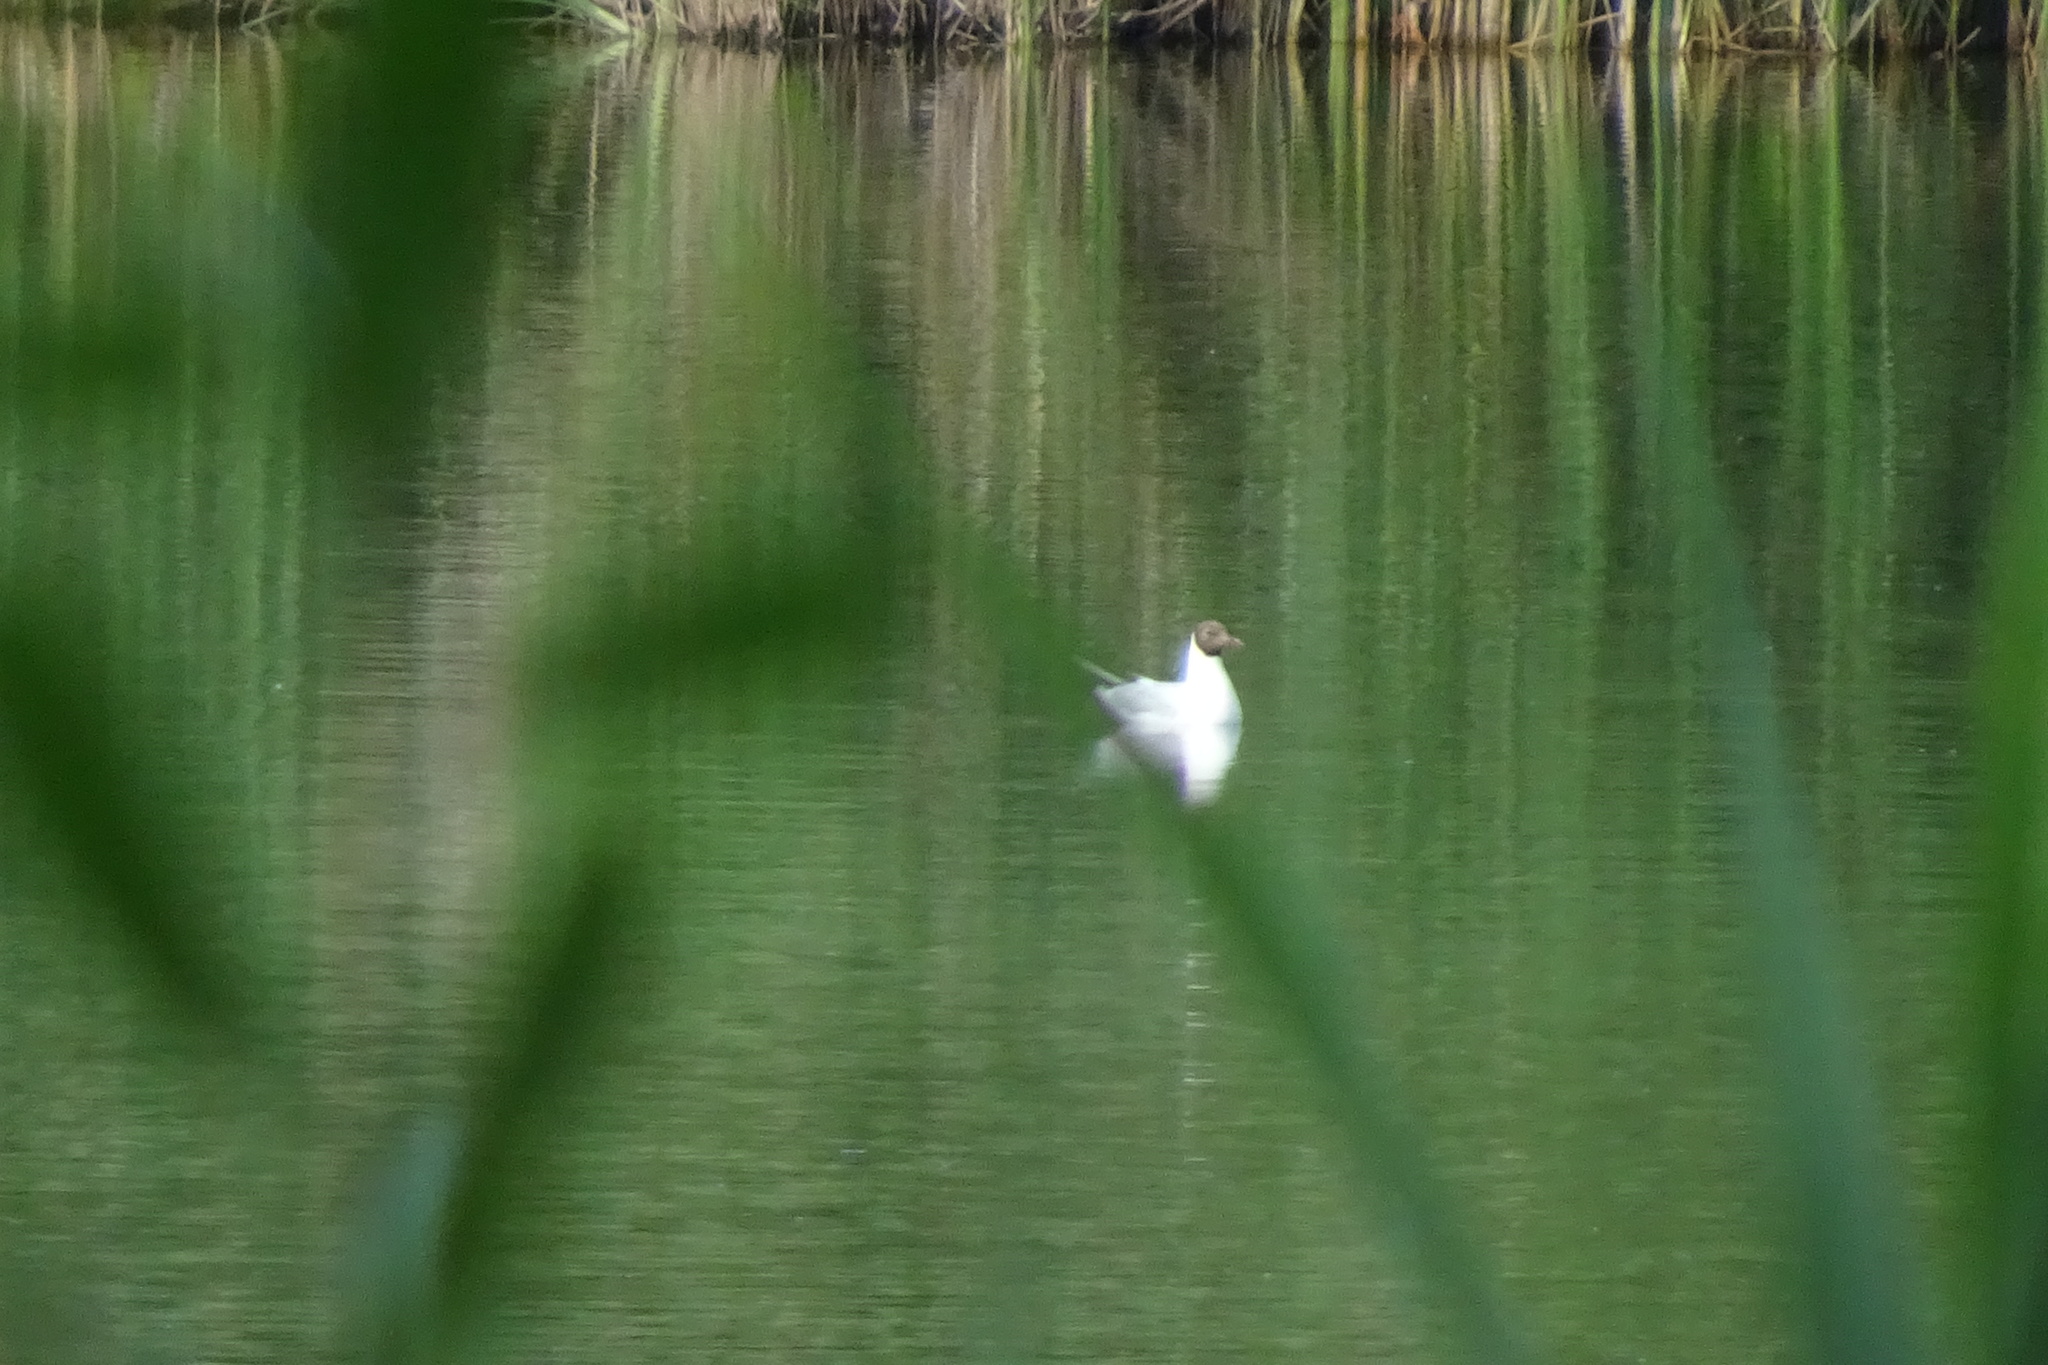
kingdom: Animalia
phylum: Chordata
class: Aves
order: Charadriiformes
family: Laridae
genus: Chroicocephalus
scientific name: Chroicocephalus ridibundus
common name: Black-headed gull
